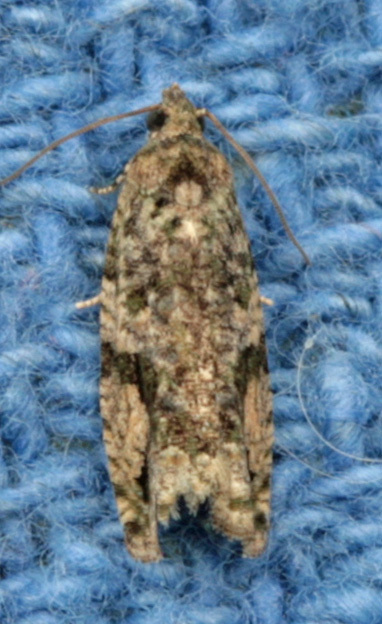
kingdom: Animalia
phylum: Arthropoda
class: Insecta
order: Lepidoptera
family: Tortricidae
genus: Proteoteras
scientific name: Proteoteras aesculana
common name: Maple twig borer moth
